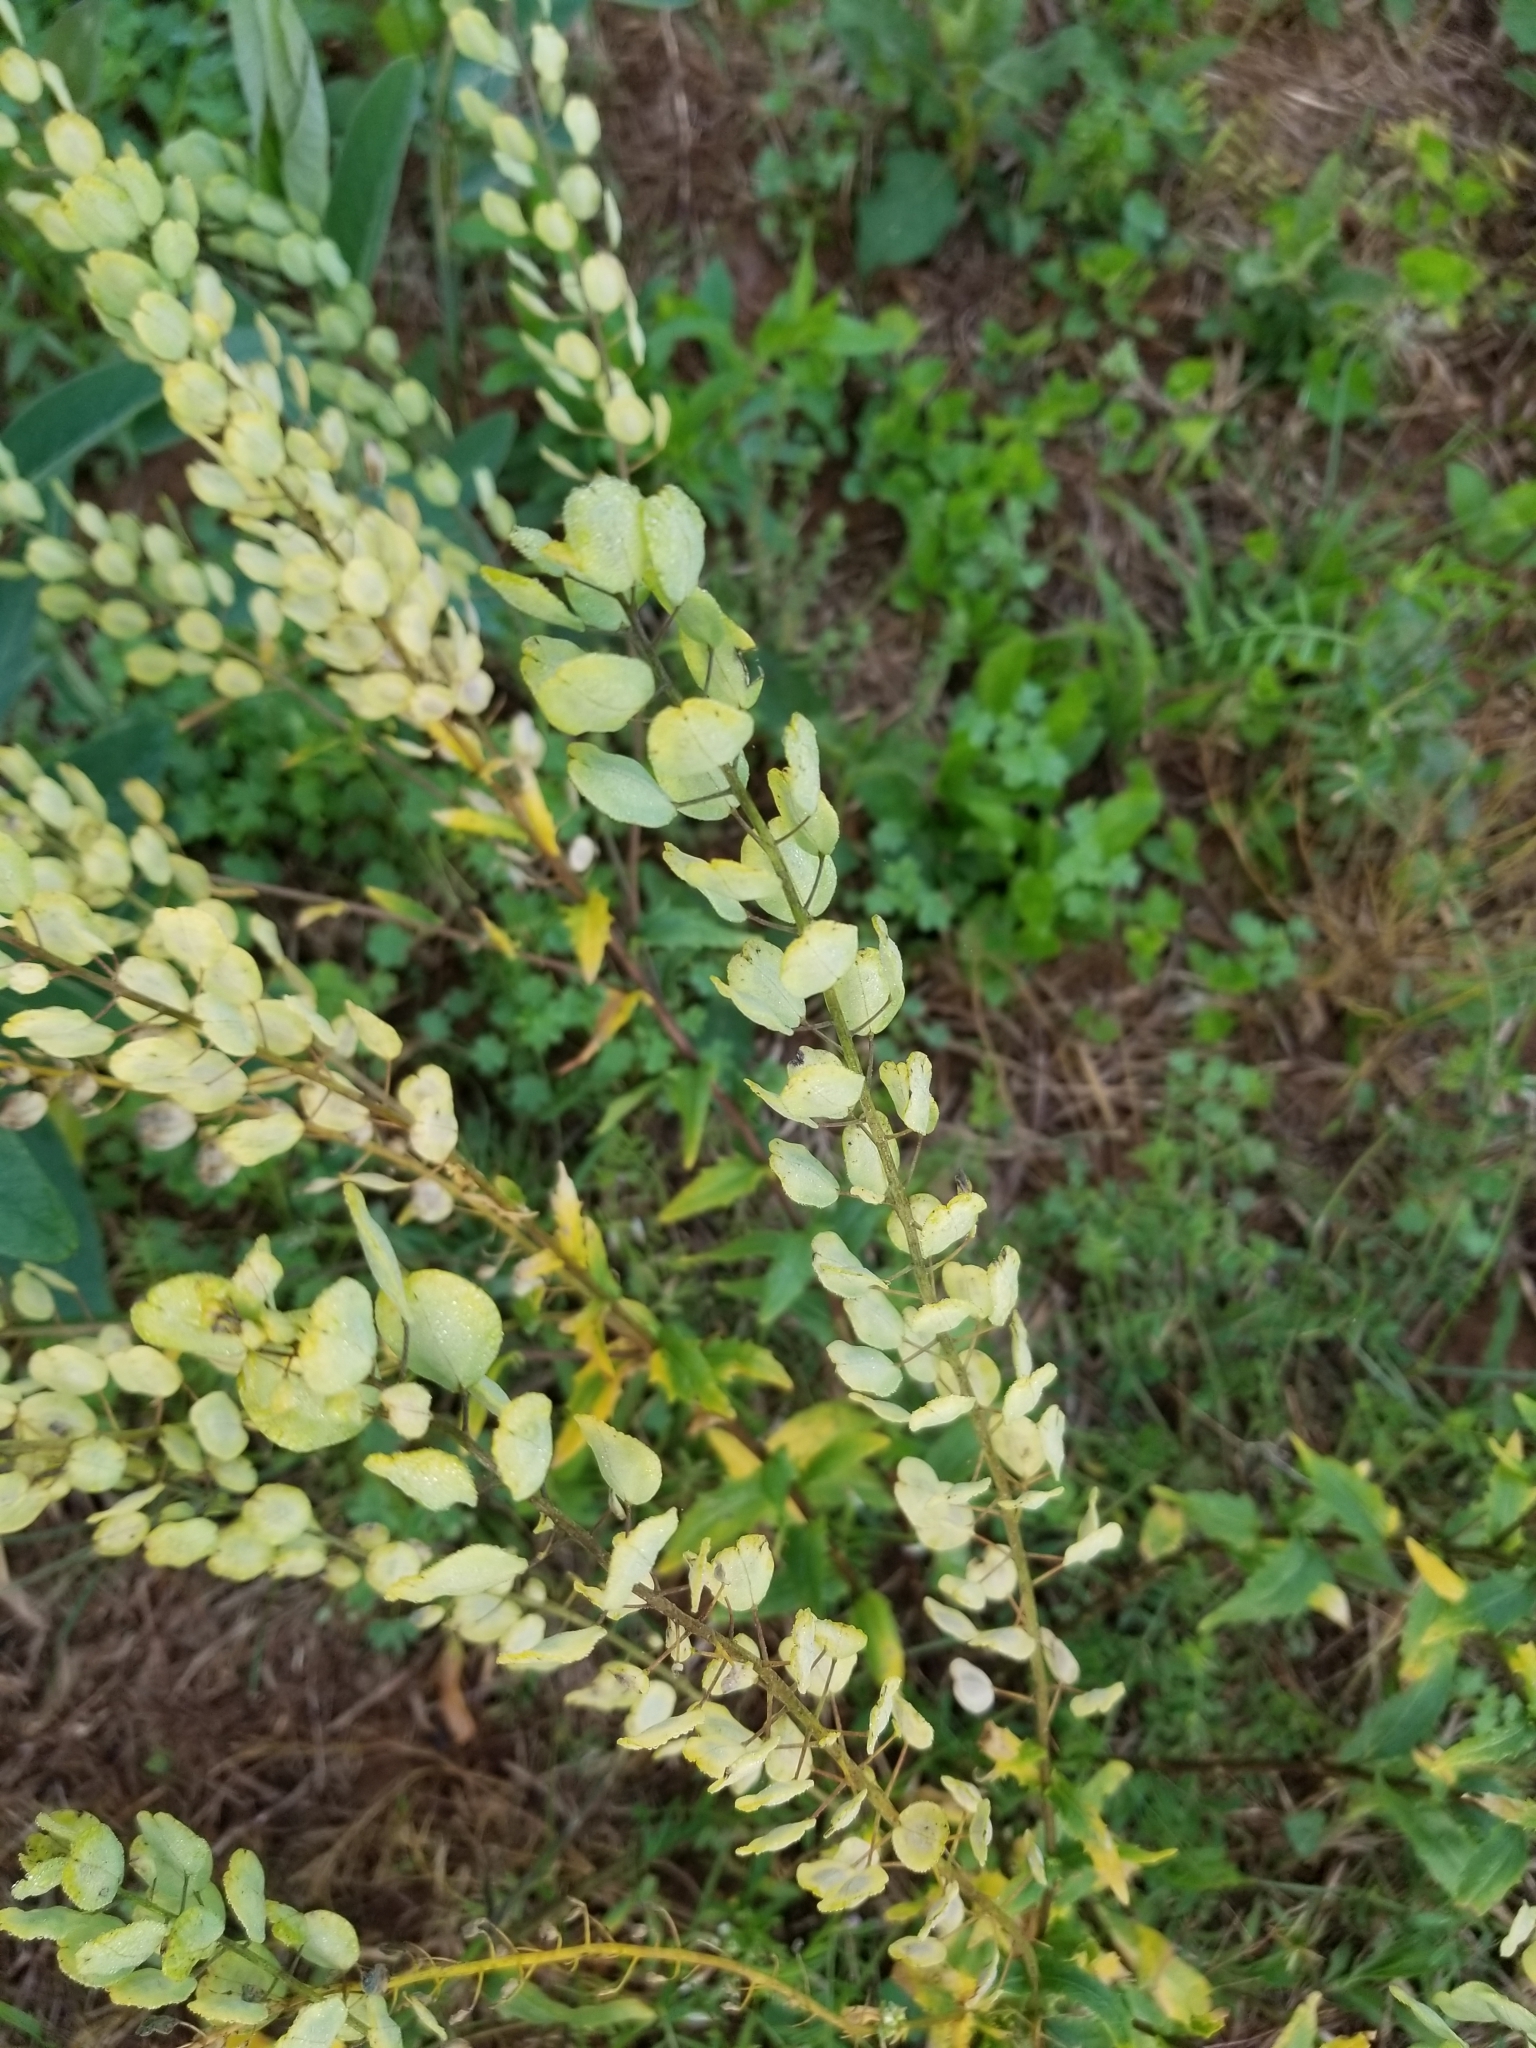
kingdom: Plantae
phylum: Tracheophyta
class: Magnoliopsida
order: Brassicales
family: Brassicaceae
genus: Thlaspi
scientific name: Thlaspi arvense
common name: Field pennycress
